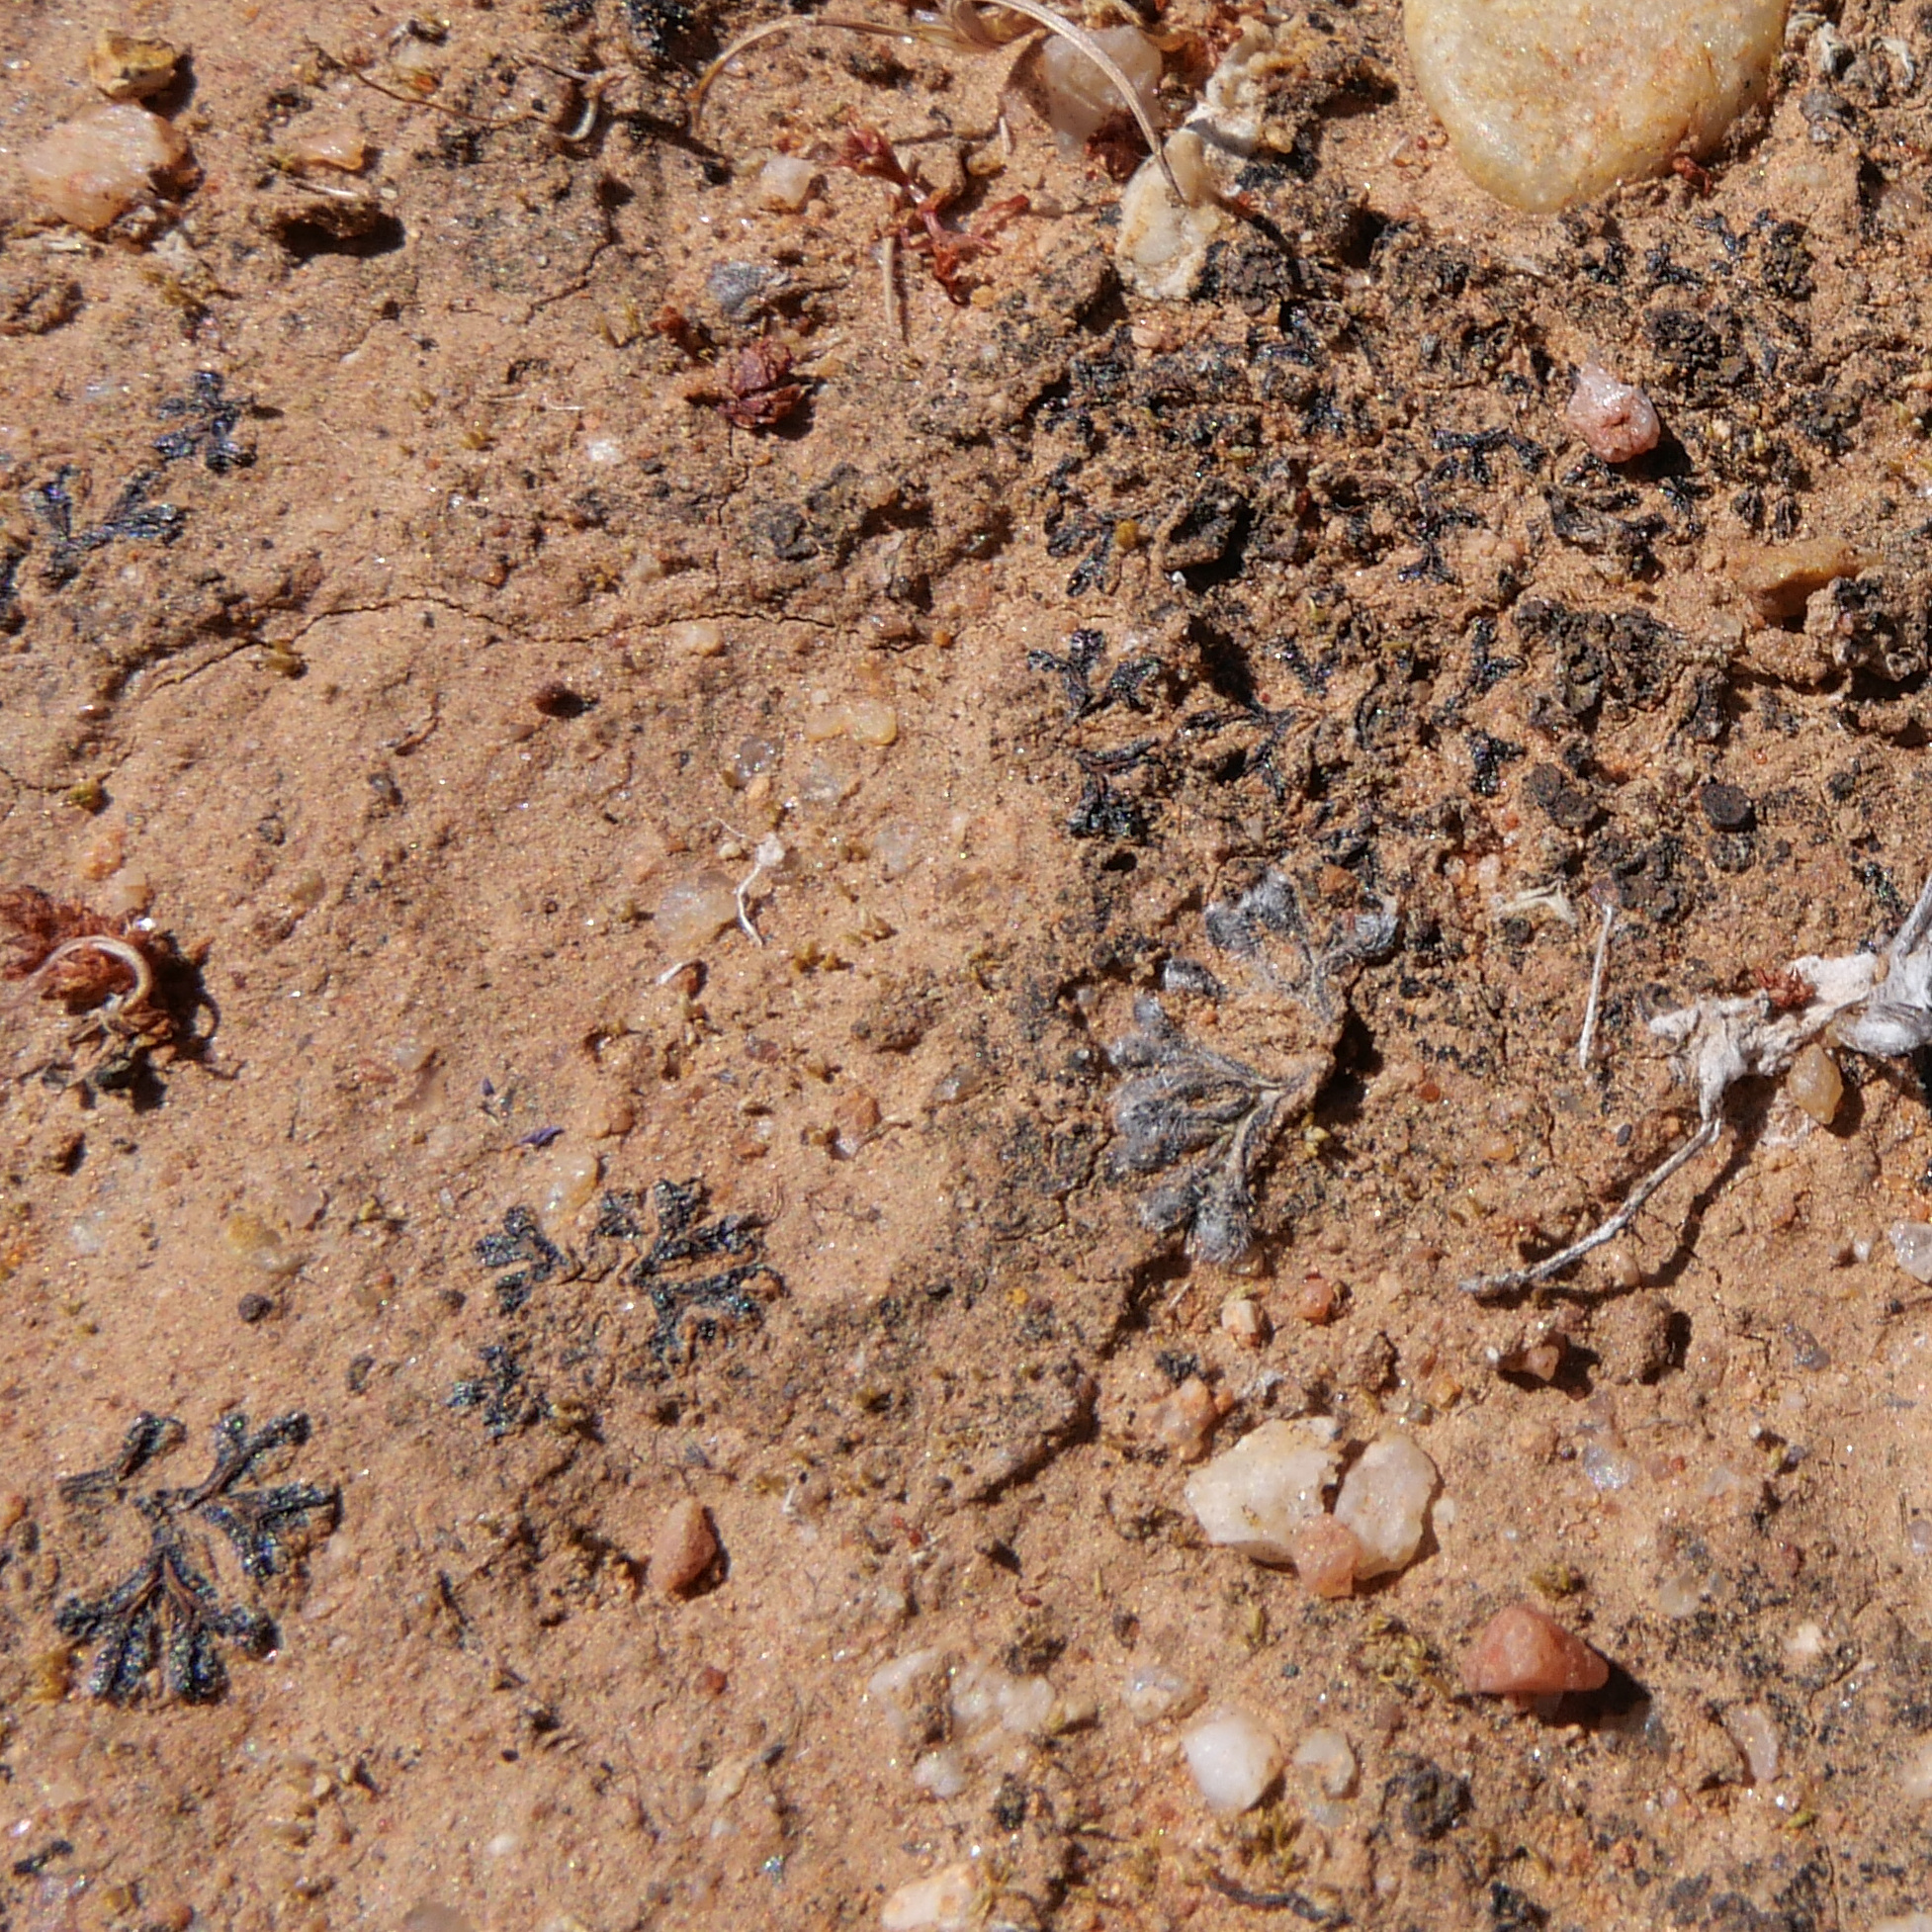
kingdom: Plantae
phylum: Marchantiophyta
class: Marchantiopsida
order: Marchantiales
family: Ricciaceae
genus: Riccia
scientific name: Riccia trichocarpa
